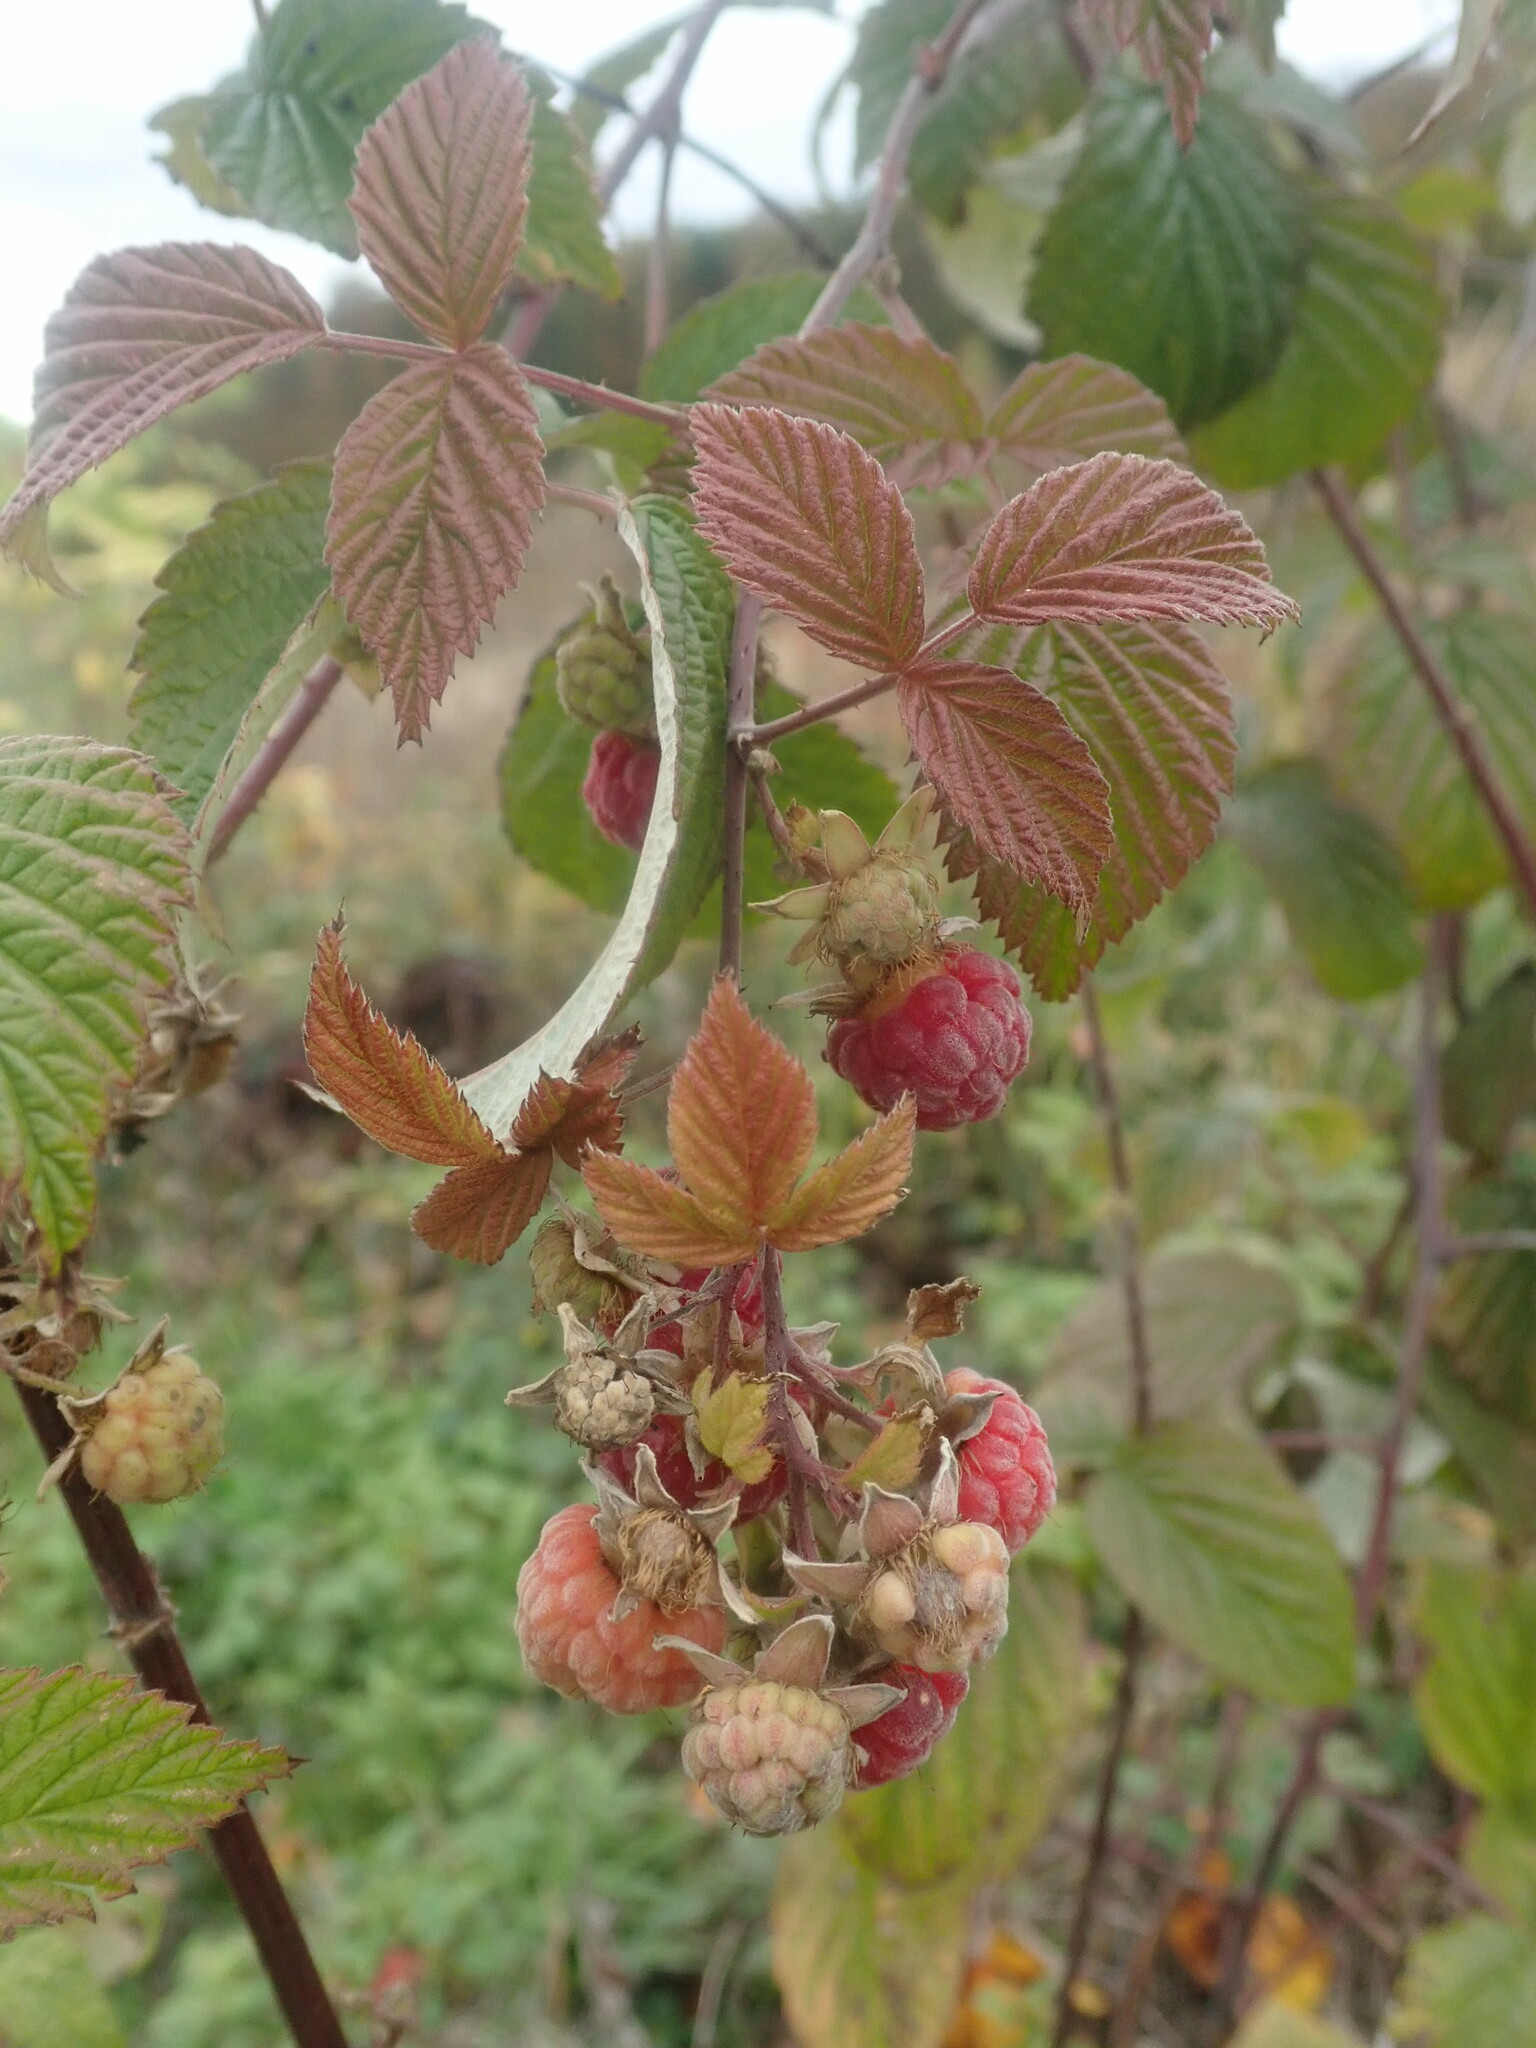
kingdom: Plantae
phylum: Tracheophyta
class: Magnoliopsida
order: Rosales
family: Rosaceae
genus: Rubus
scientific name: Rubus idaeus
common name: Raspberry
